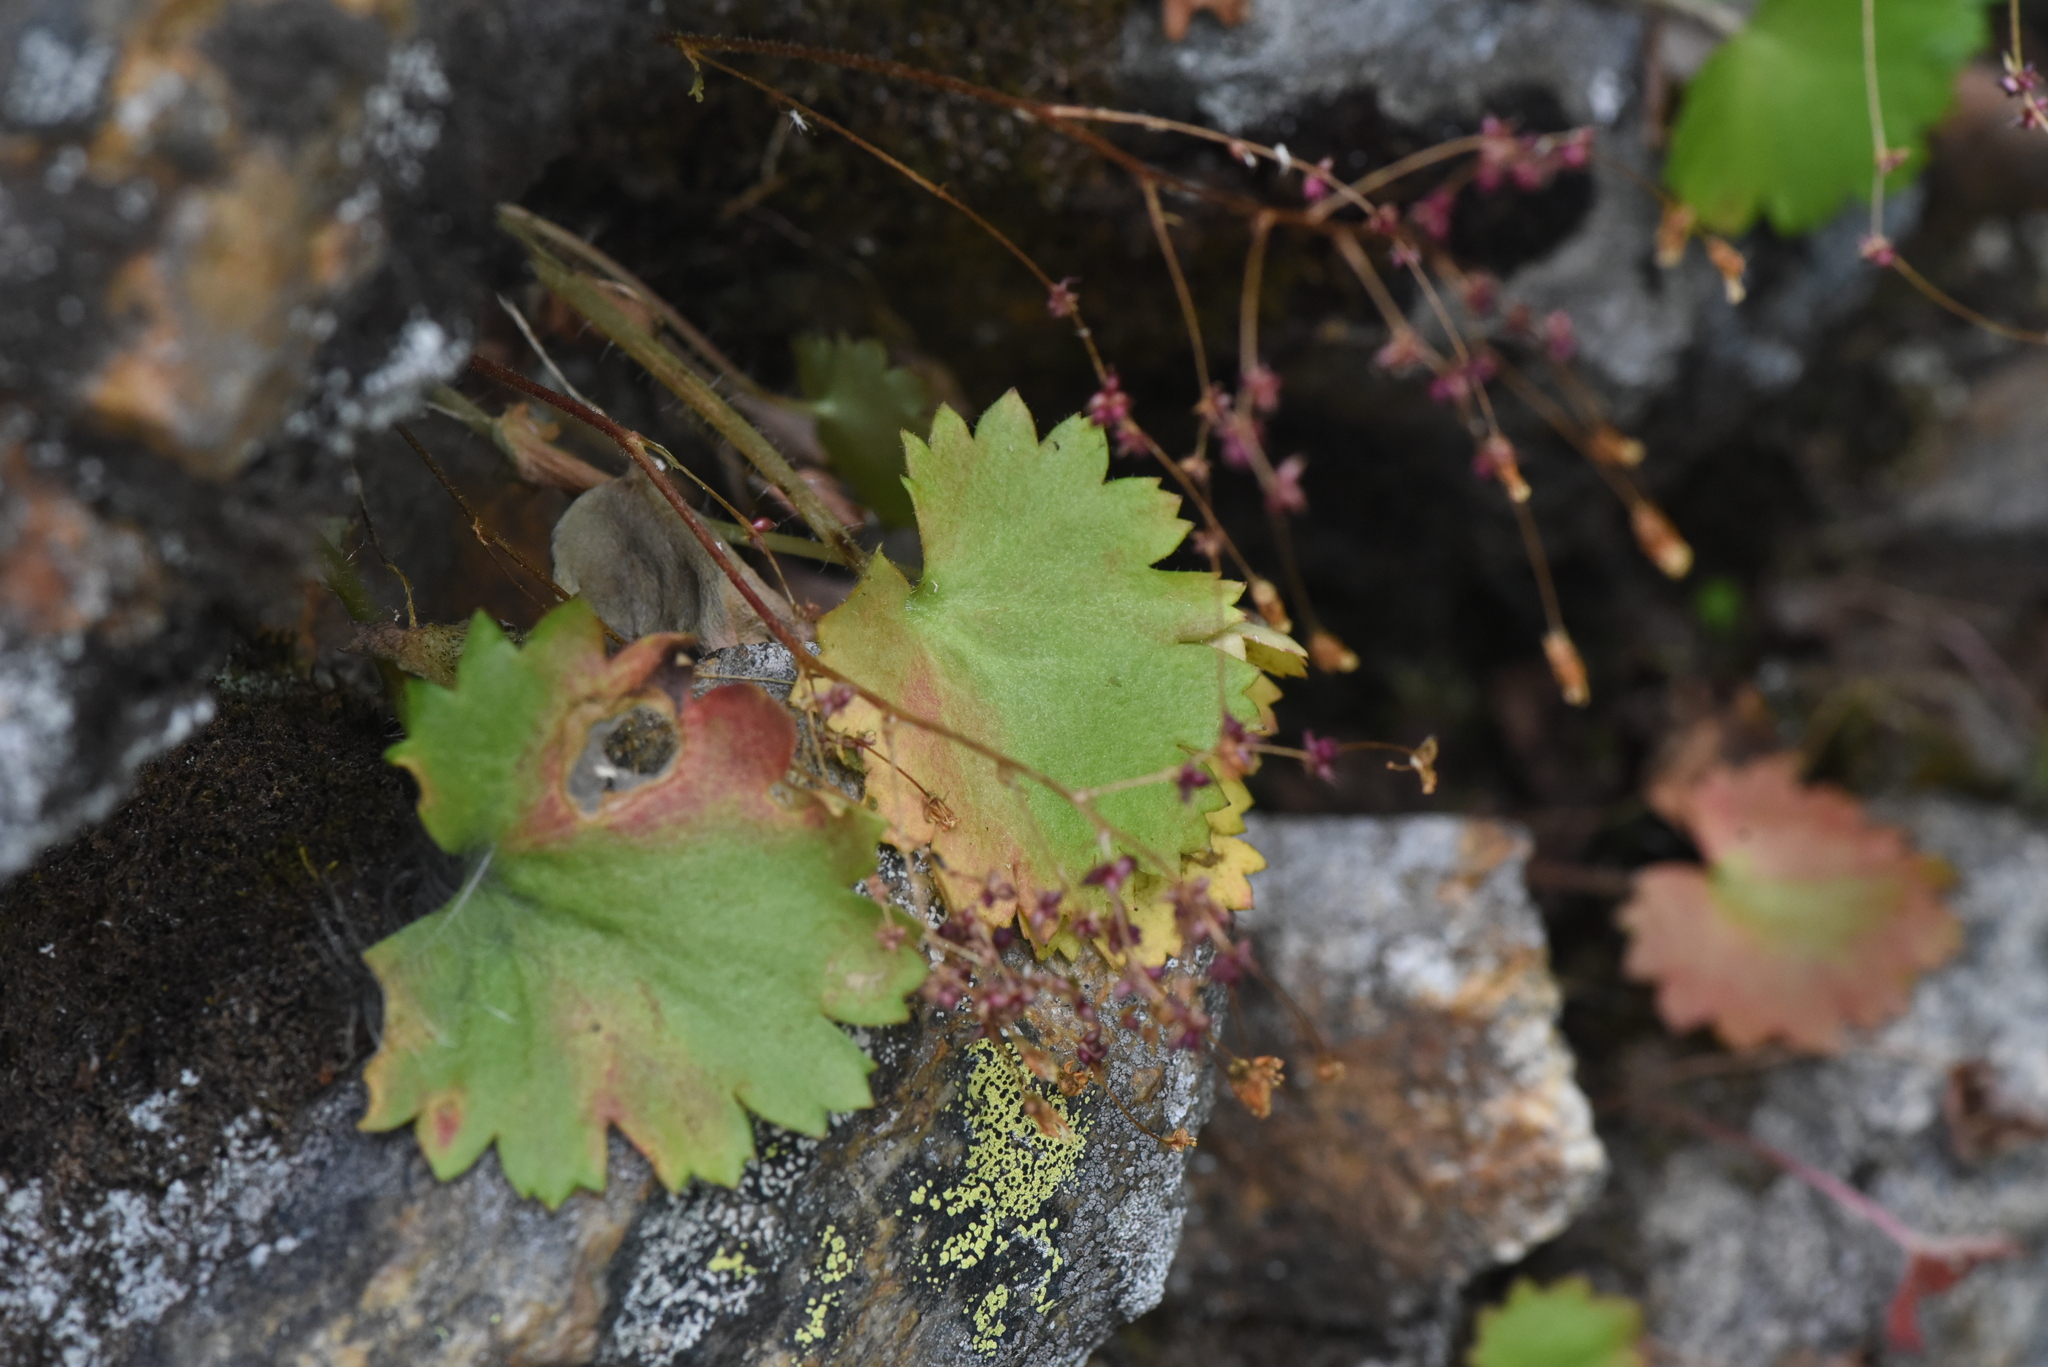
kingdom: Plantae
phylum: Tracheophyta
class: Magnoliopsida
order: Saxifragales
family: Saxifragaceae
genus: Micranthes
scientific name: Micranthes mertensiana
